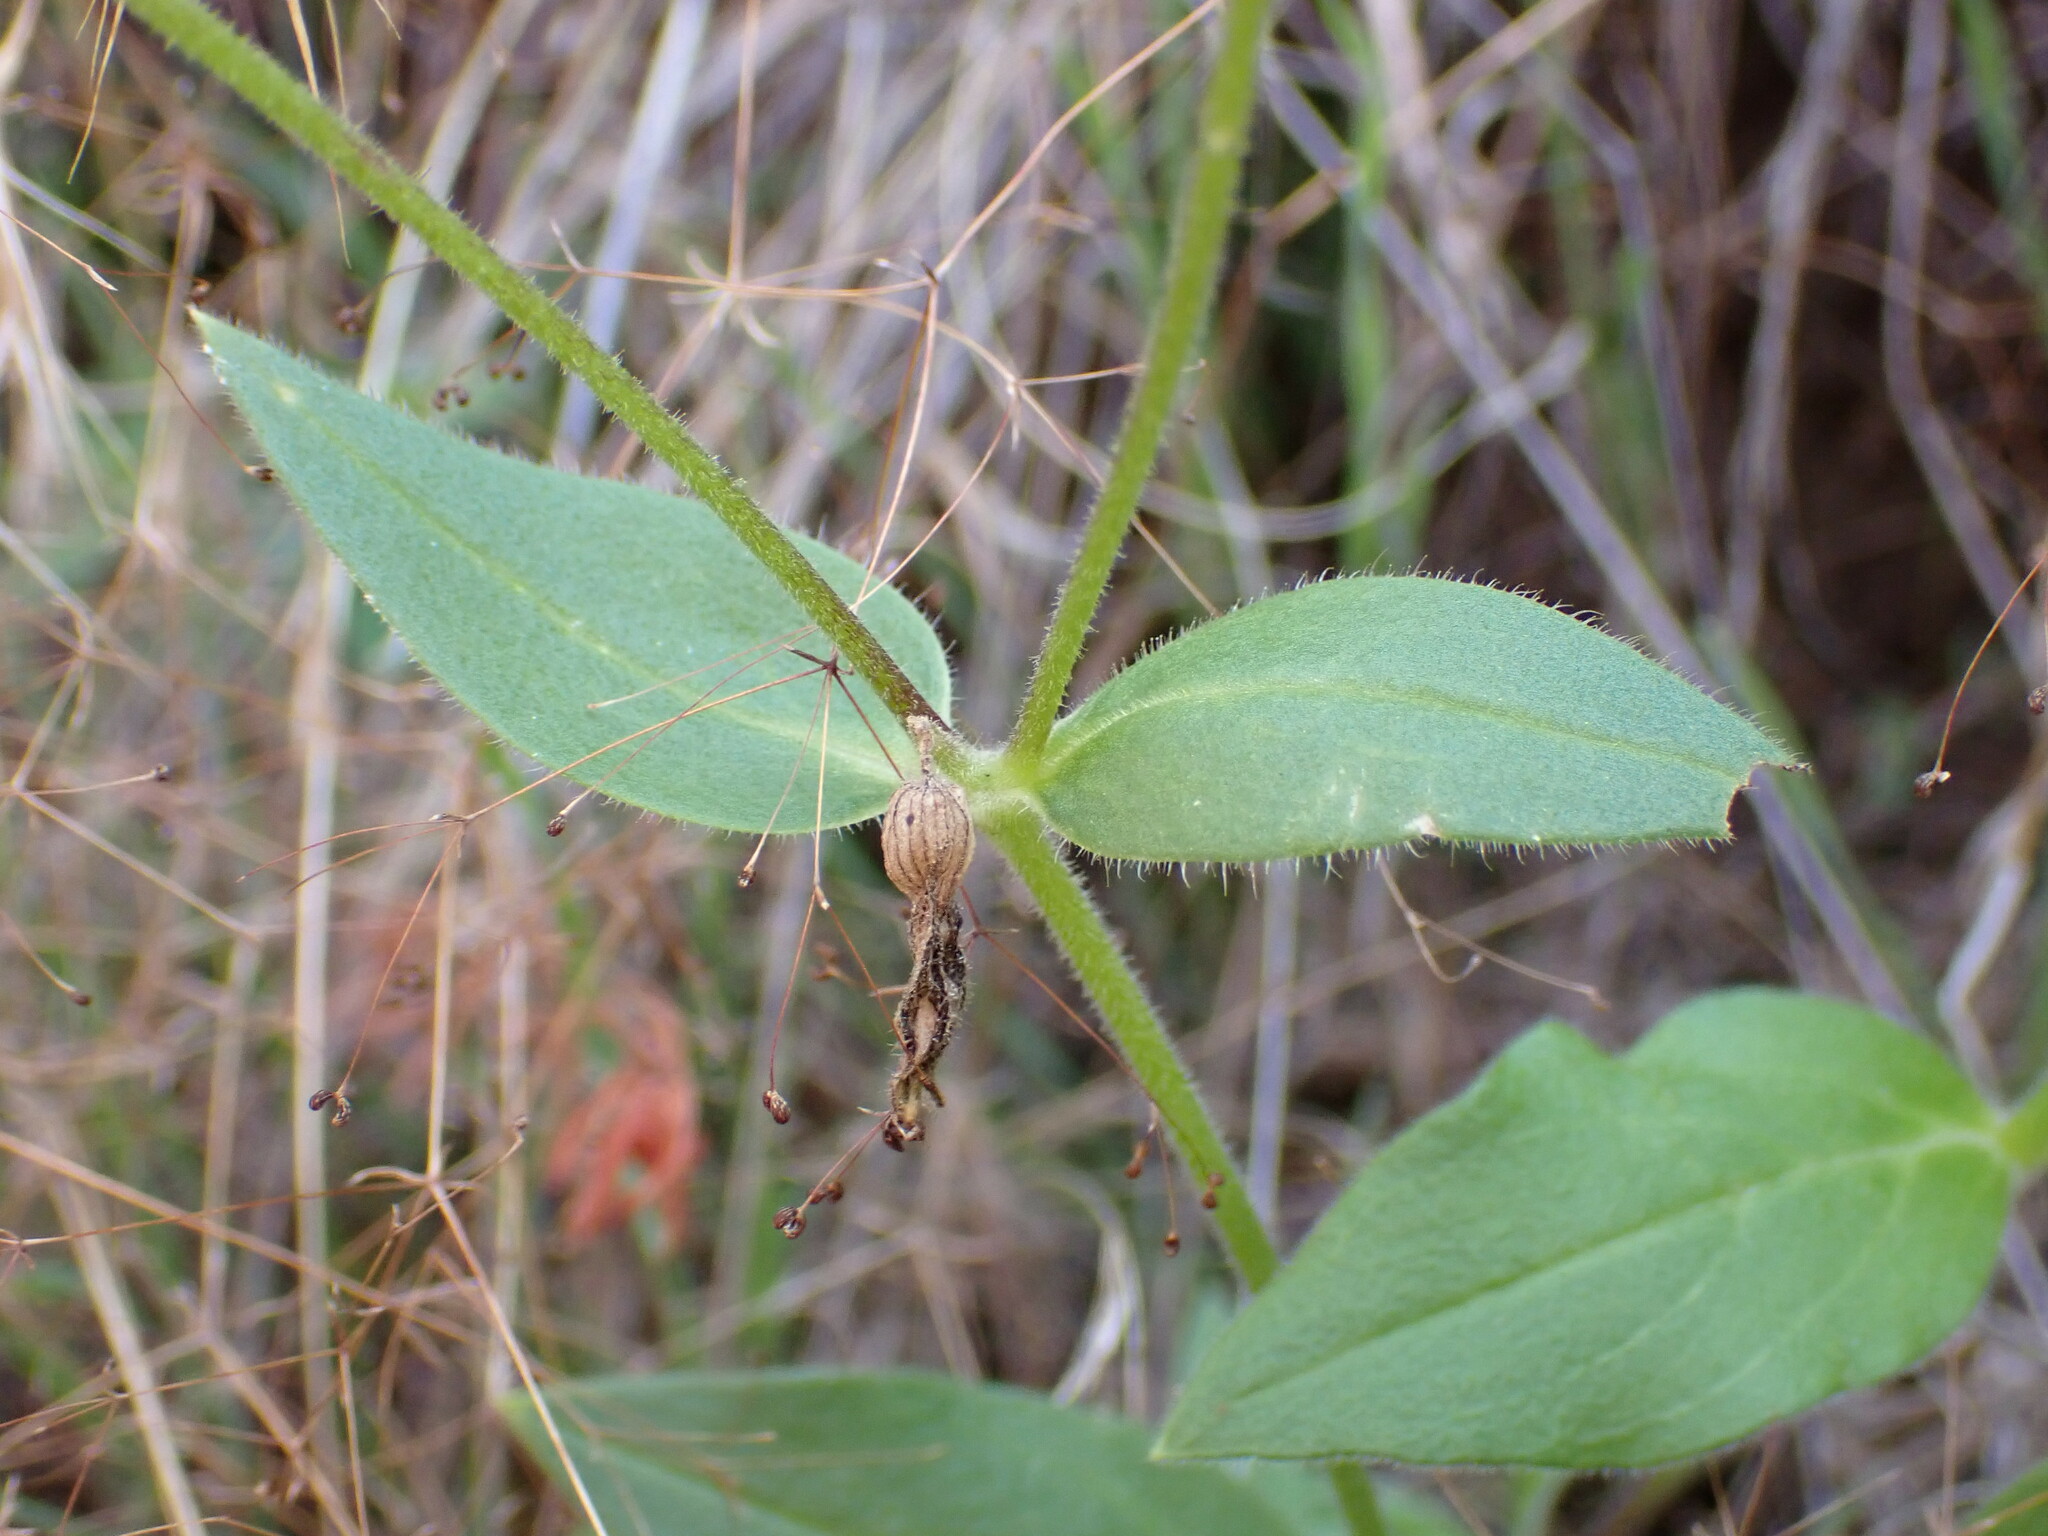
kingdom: Plantae
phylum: Tracheophyta
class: Magnoliopsida
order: Caryophyllales
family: Caryophyllaceae
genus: Silene
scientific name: Silene latifolia
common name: White campion
